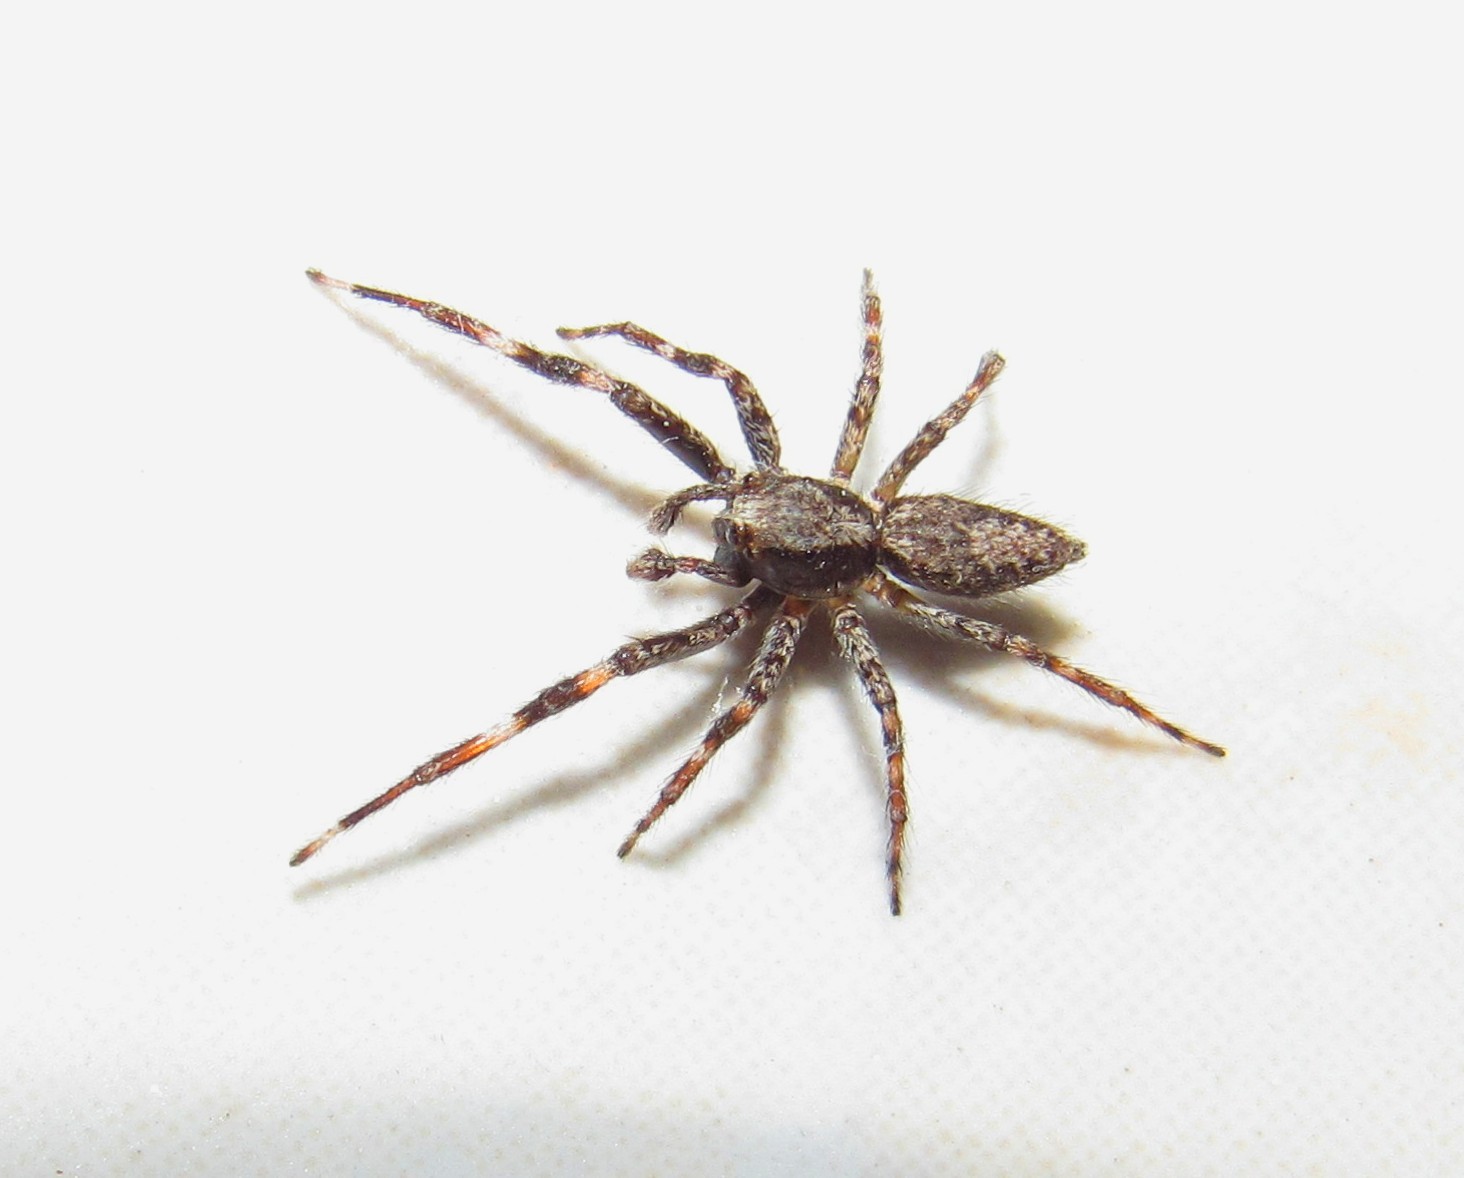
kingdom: Animalia
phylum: Arthropoda
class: Arachnida
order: Araneae
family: Salticidae
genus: Titanattus
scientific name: Titanattus andinus
